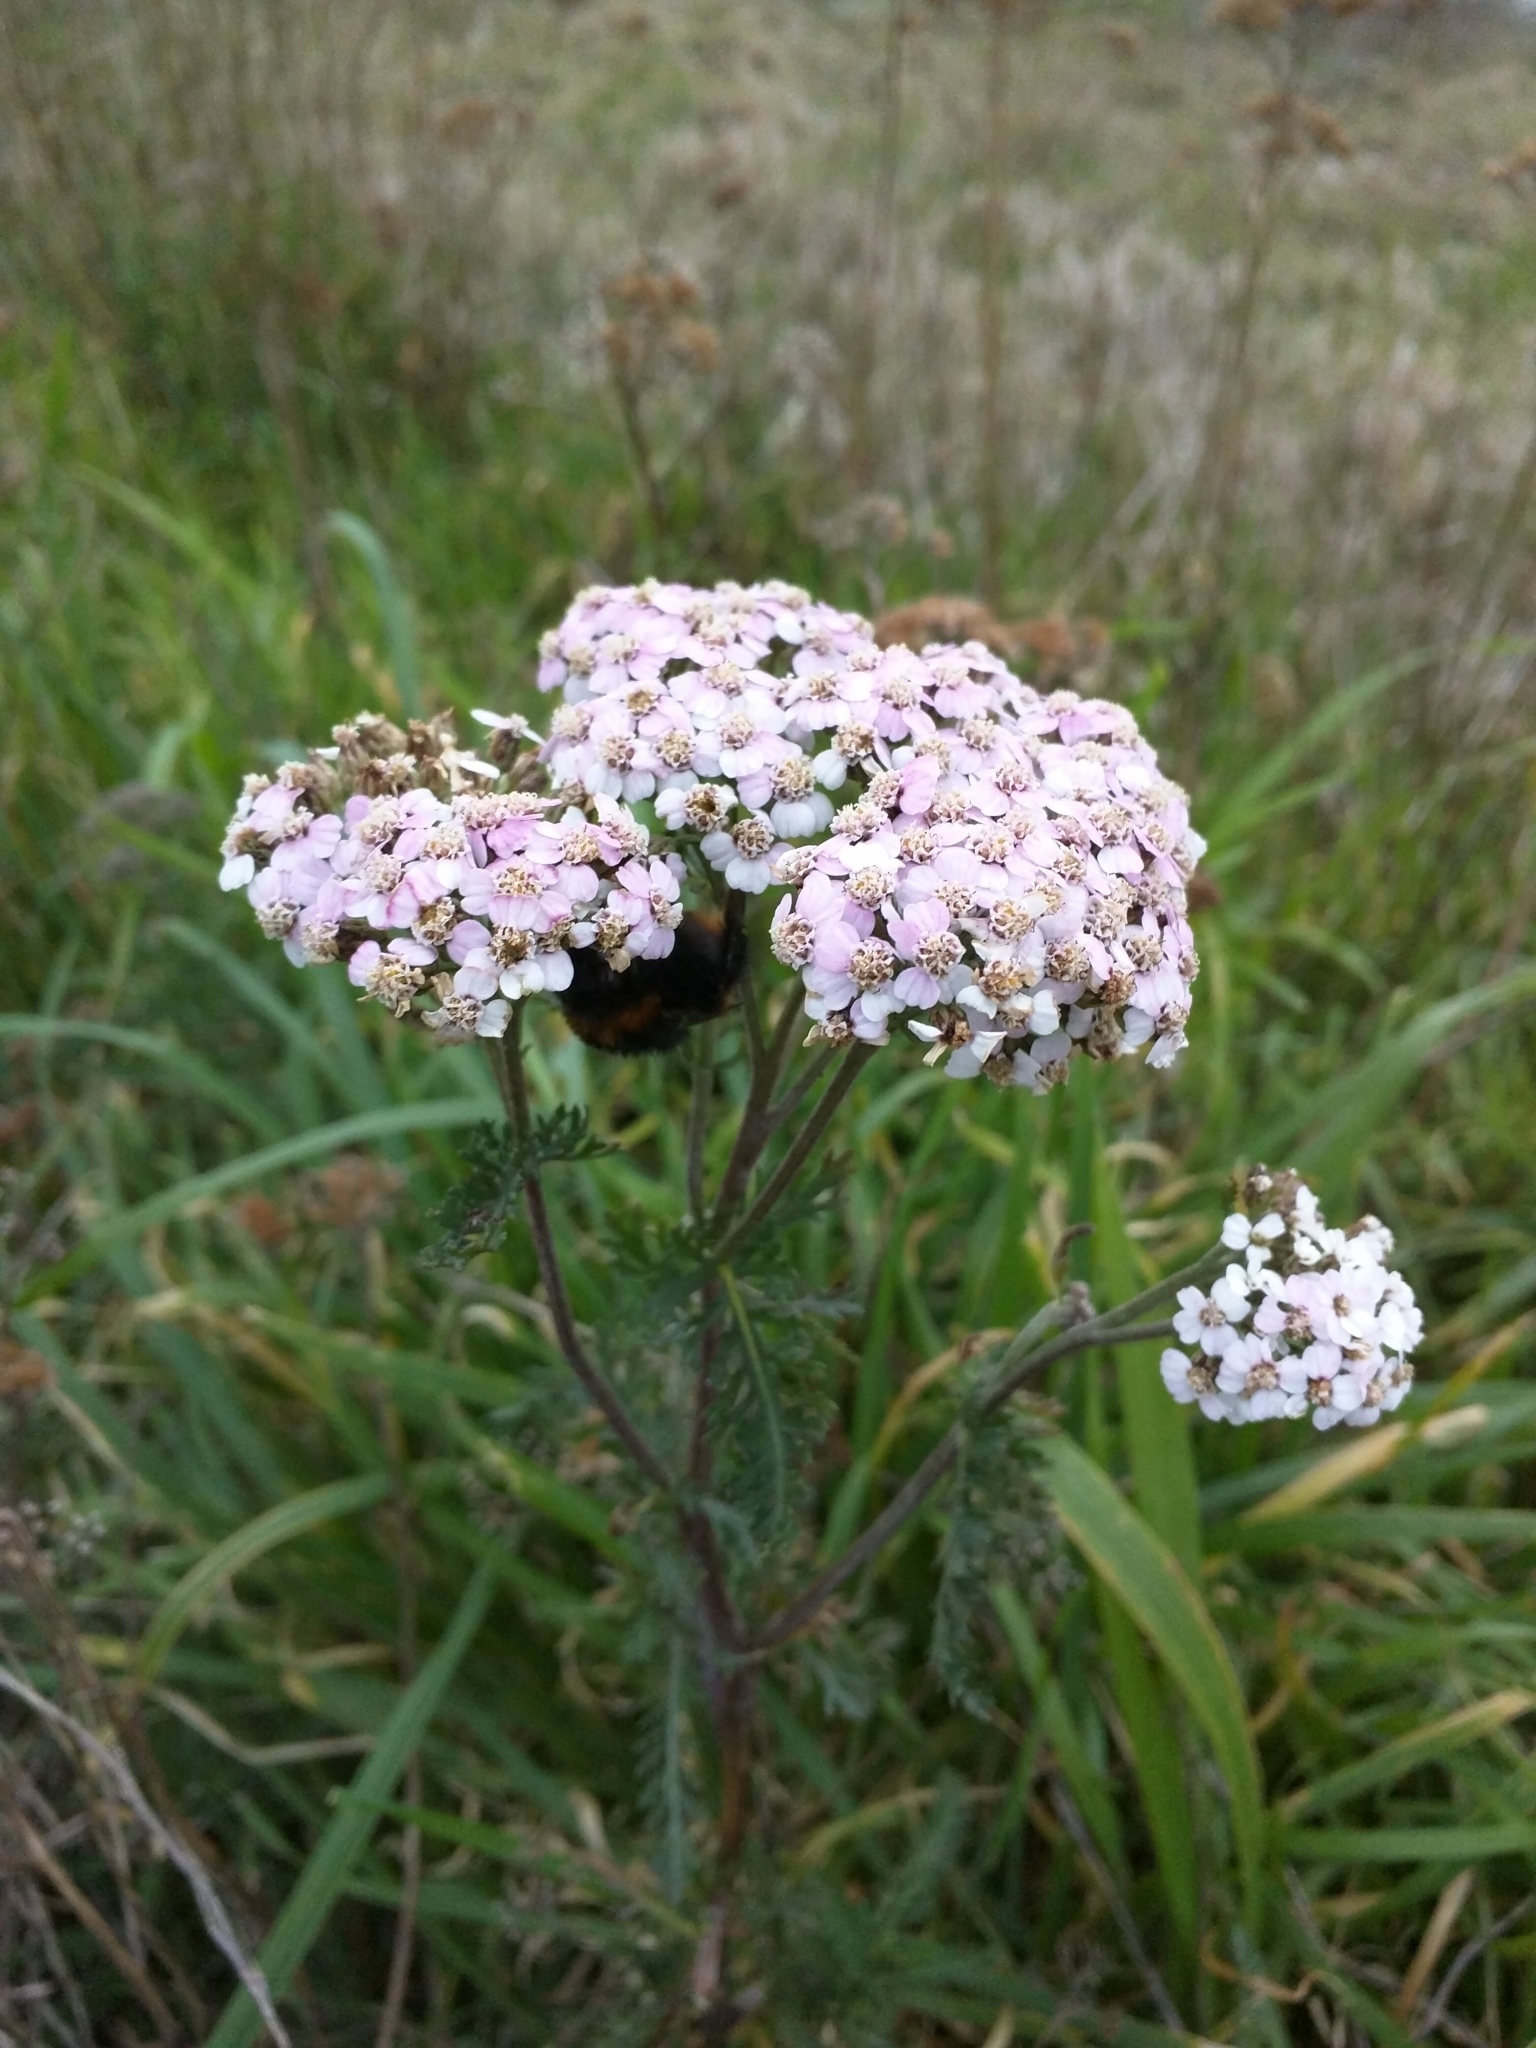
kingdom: Plantae
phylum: Tracheophyta
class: Magnoliopsida
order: Asterales
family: Asteraceae
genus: Achillea
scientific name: Achillea millefolium
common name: Yarrow
